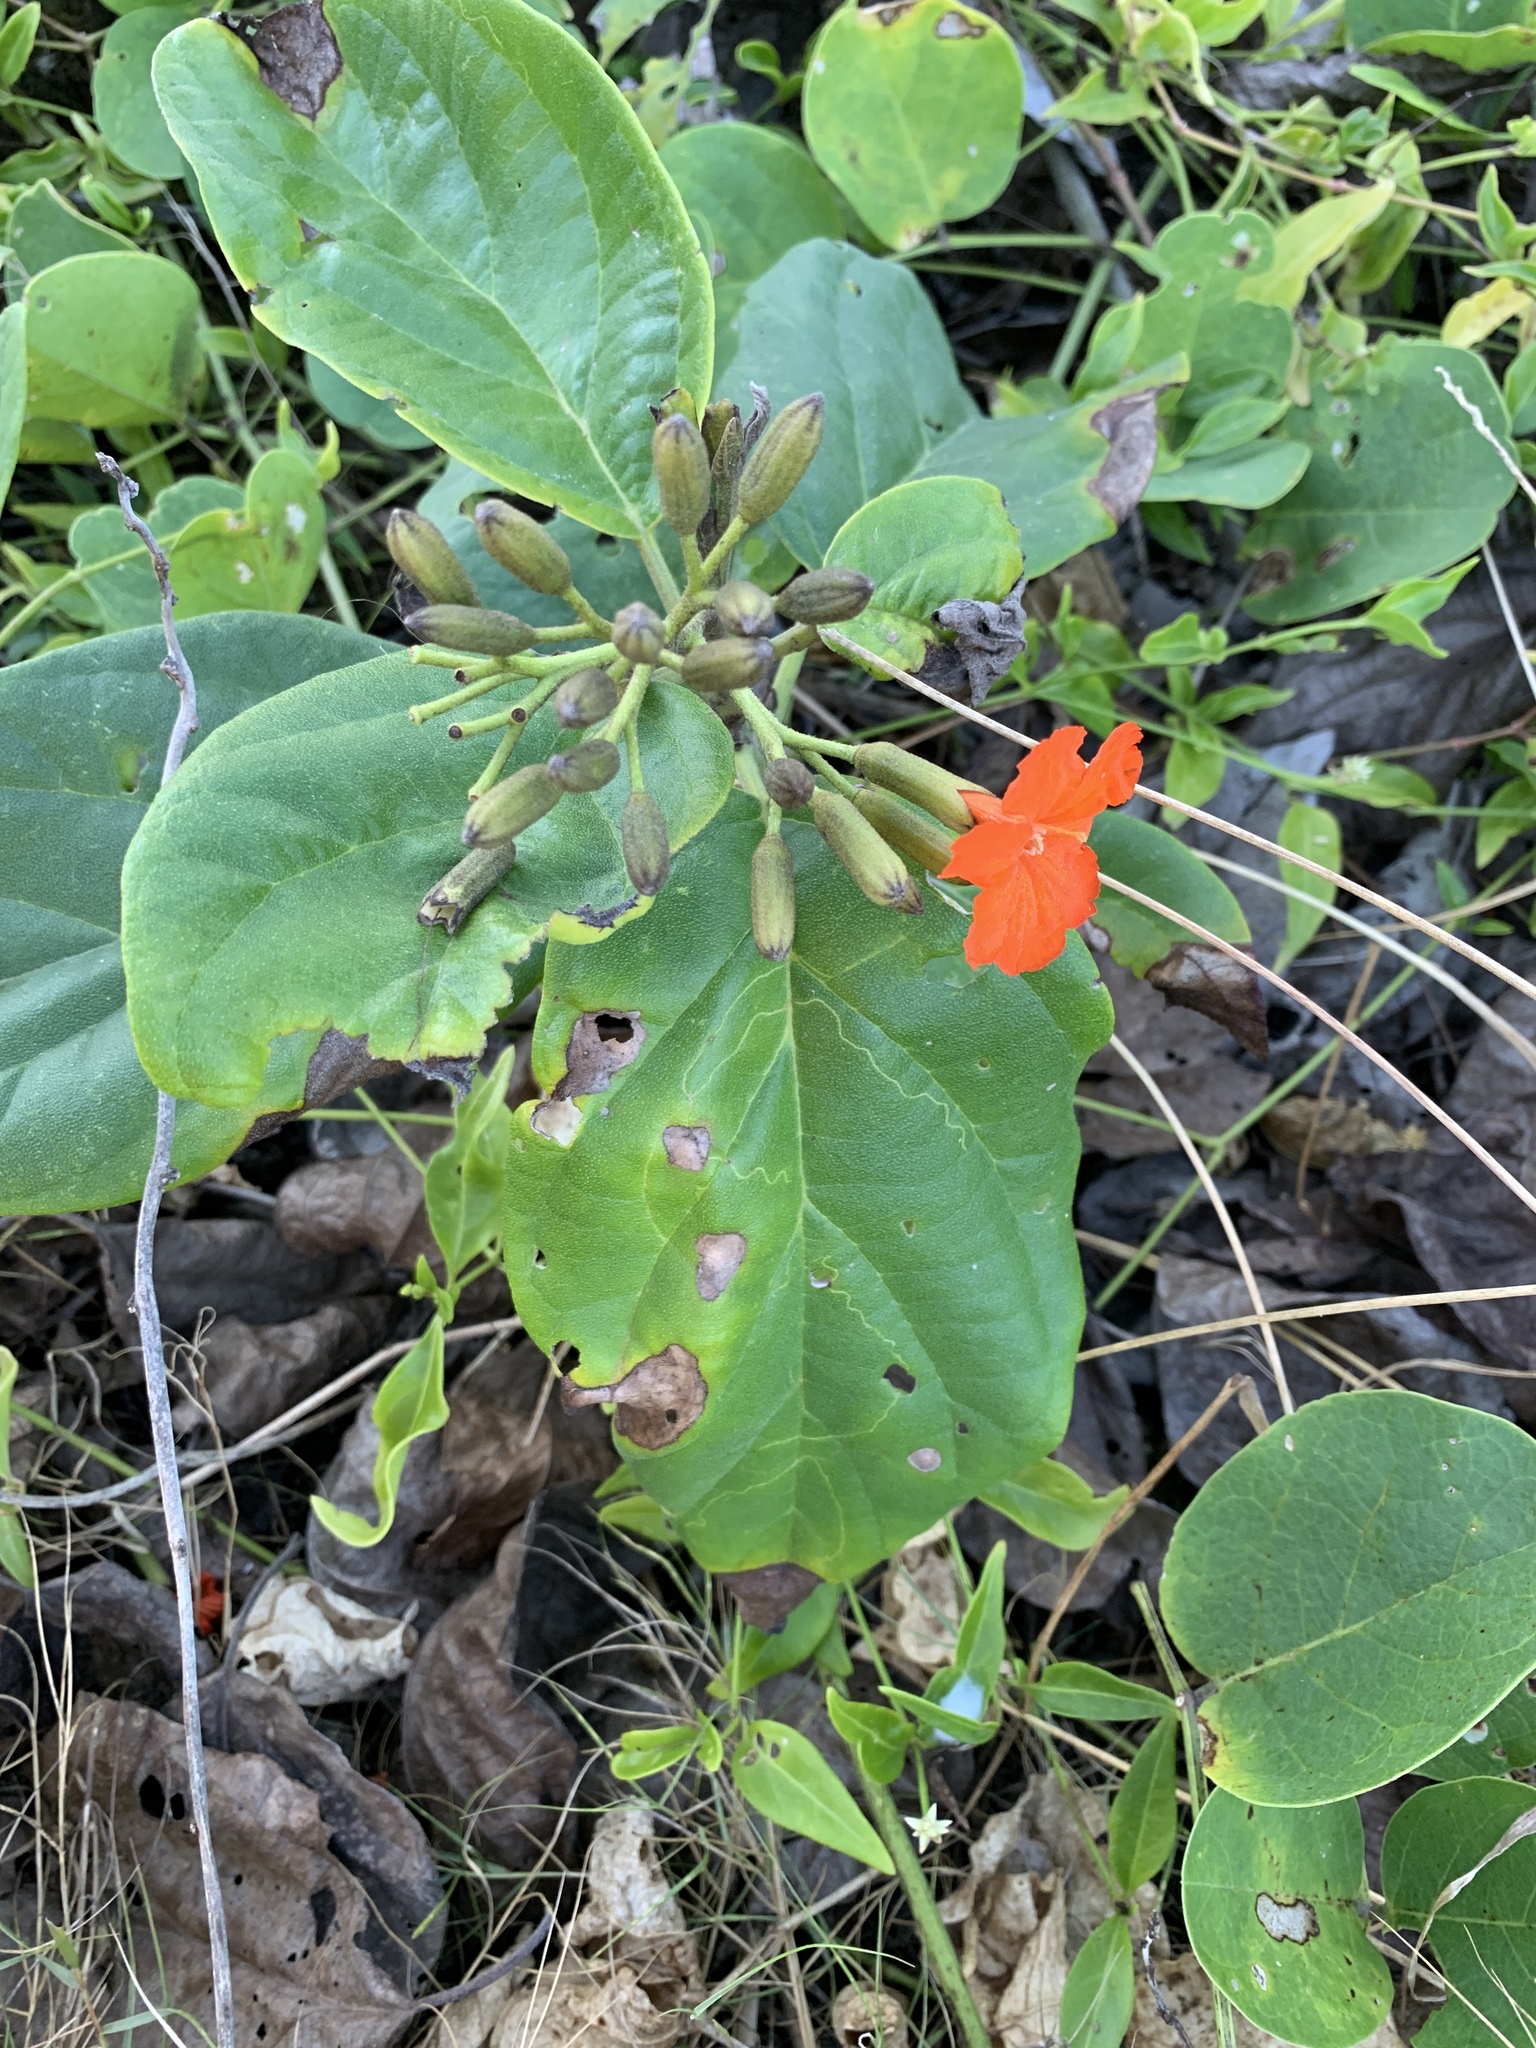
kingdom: Plantae
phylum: Tracheophyta
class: Magnoliopsida
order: Boraginales
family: Cordiaceae
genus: Cordia
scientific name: Cordia sebestena
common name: Largeleaf geigertree
